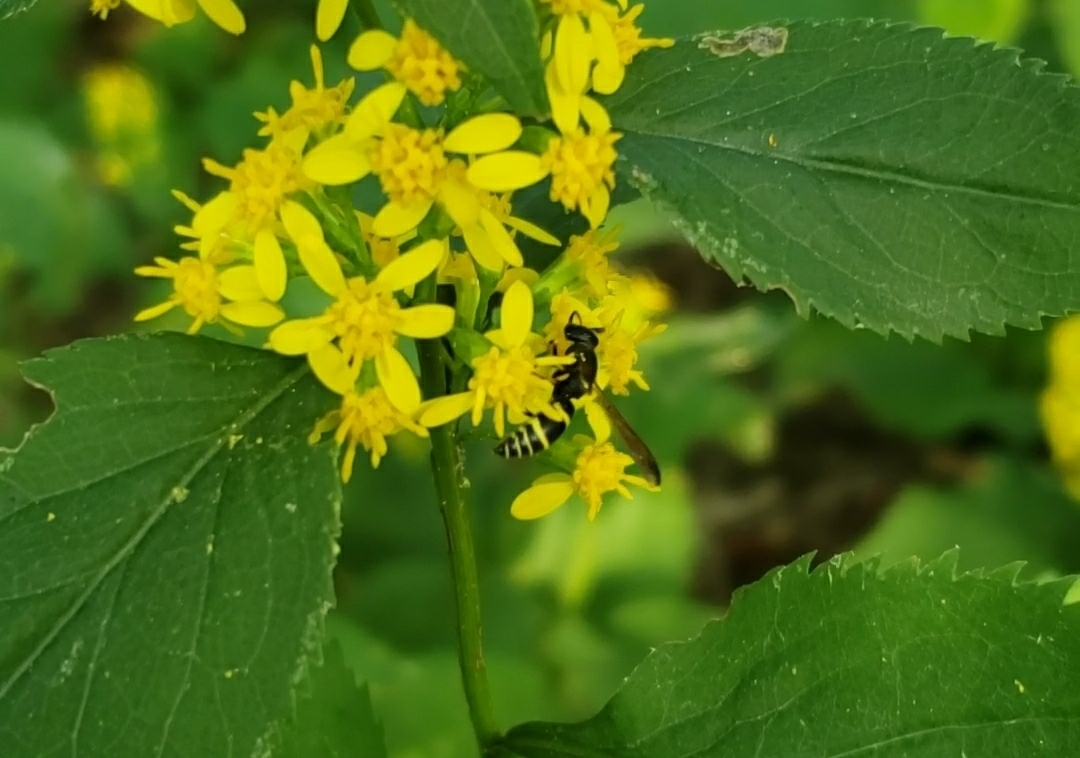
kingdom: Animalia
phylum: Arthropoda
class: Insecta
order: Hymenoptera
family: Vespidae
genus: Ancistrocerus
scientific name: Ancistrocerus
